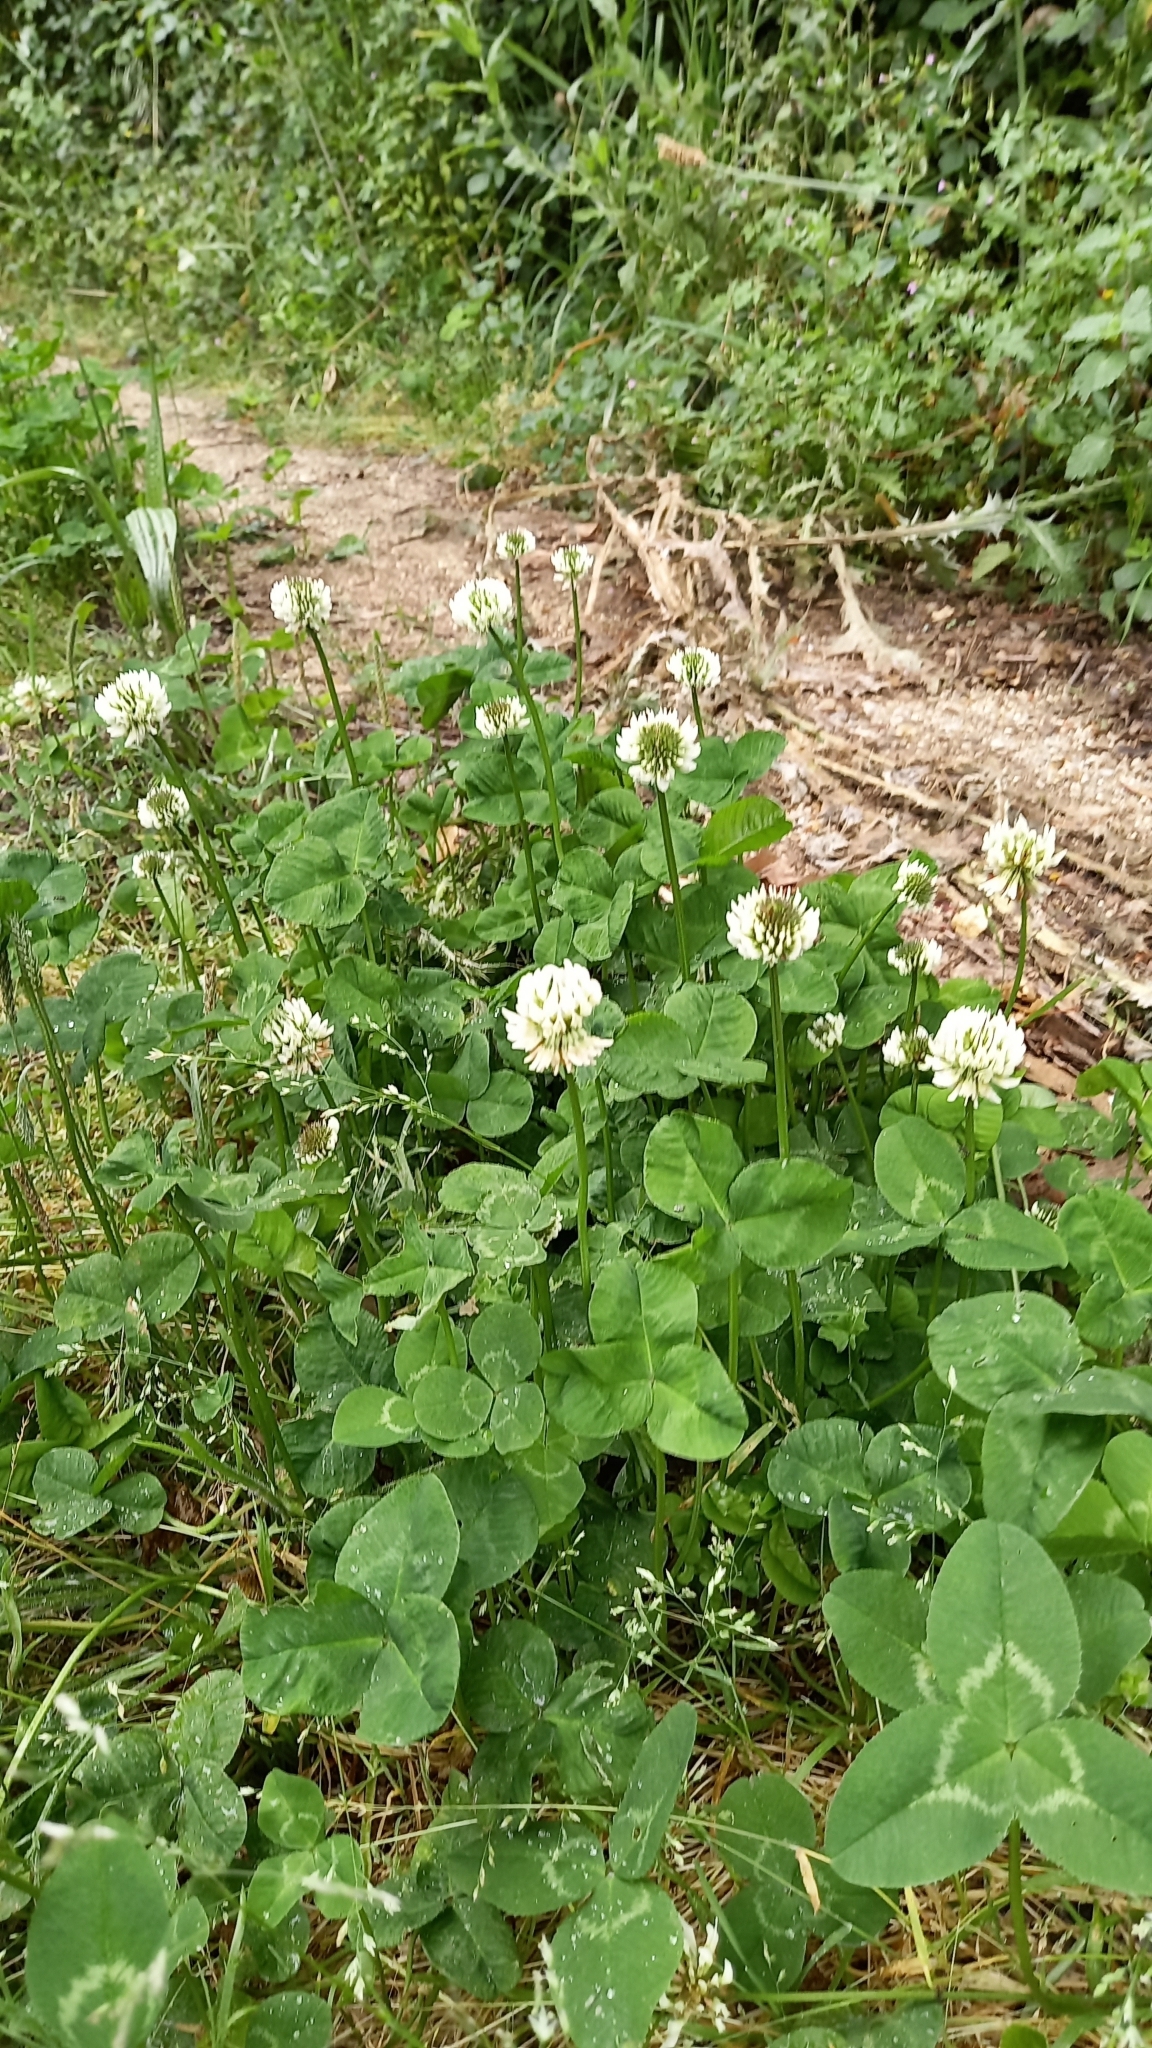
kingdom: Plantae
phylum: Tracheophyta
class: Magnoliopsida
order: Fabales
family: Fabaceae
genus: Trifolium
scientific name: Trifolium repens
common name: White clover
